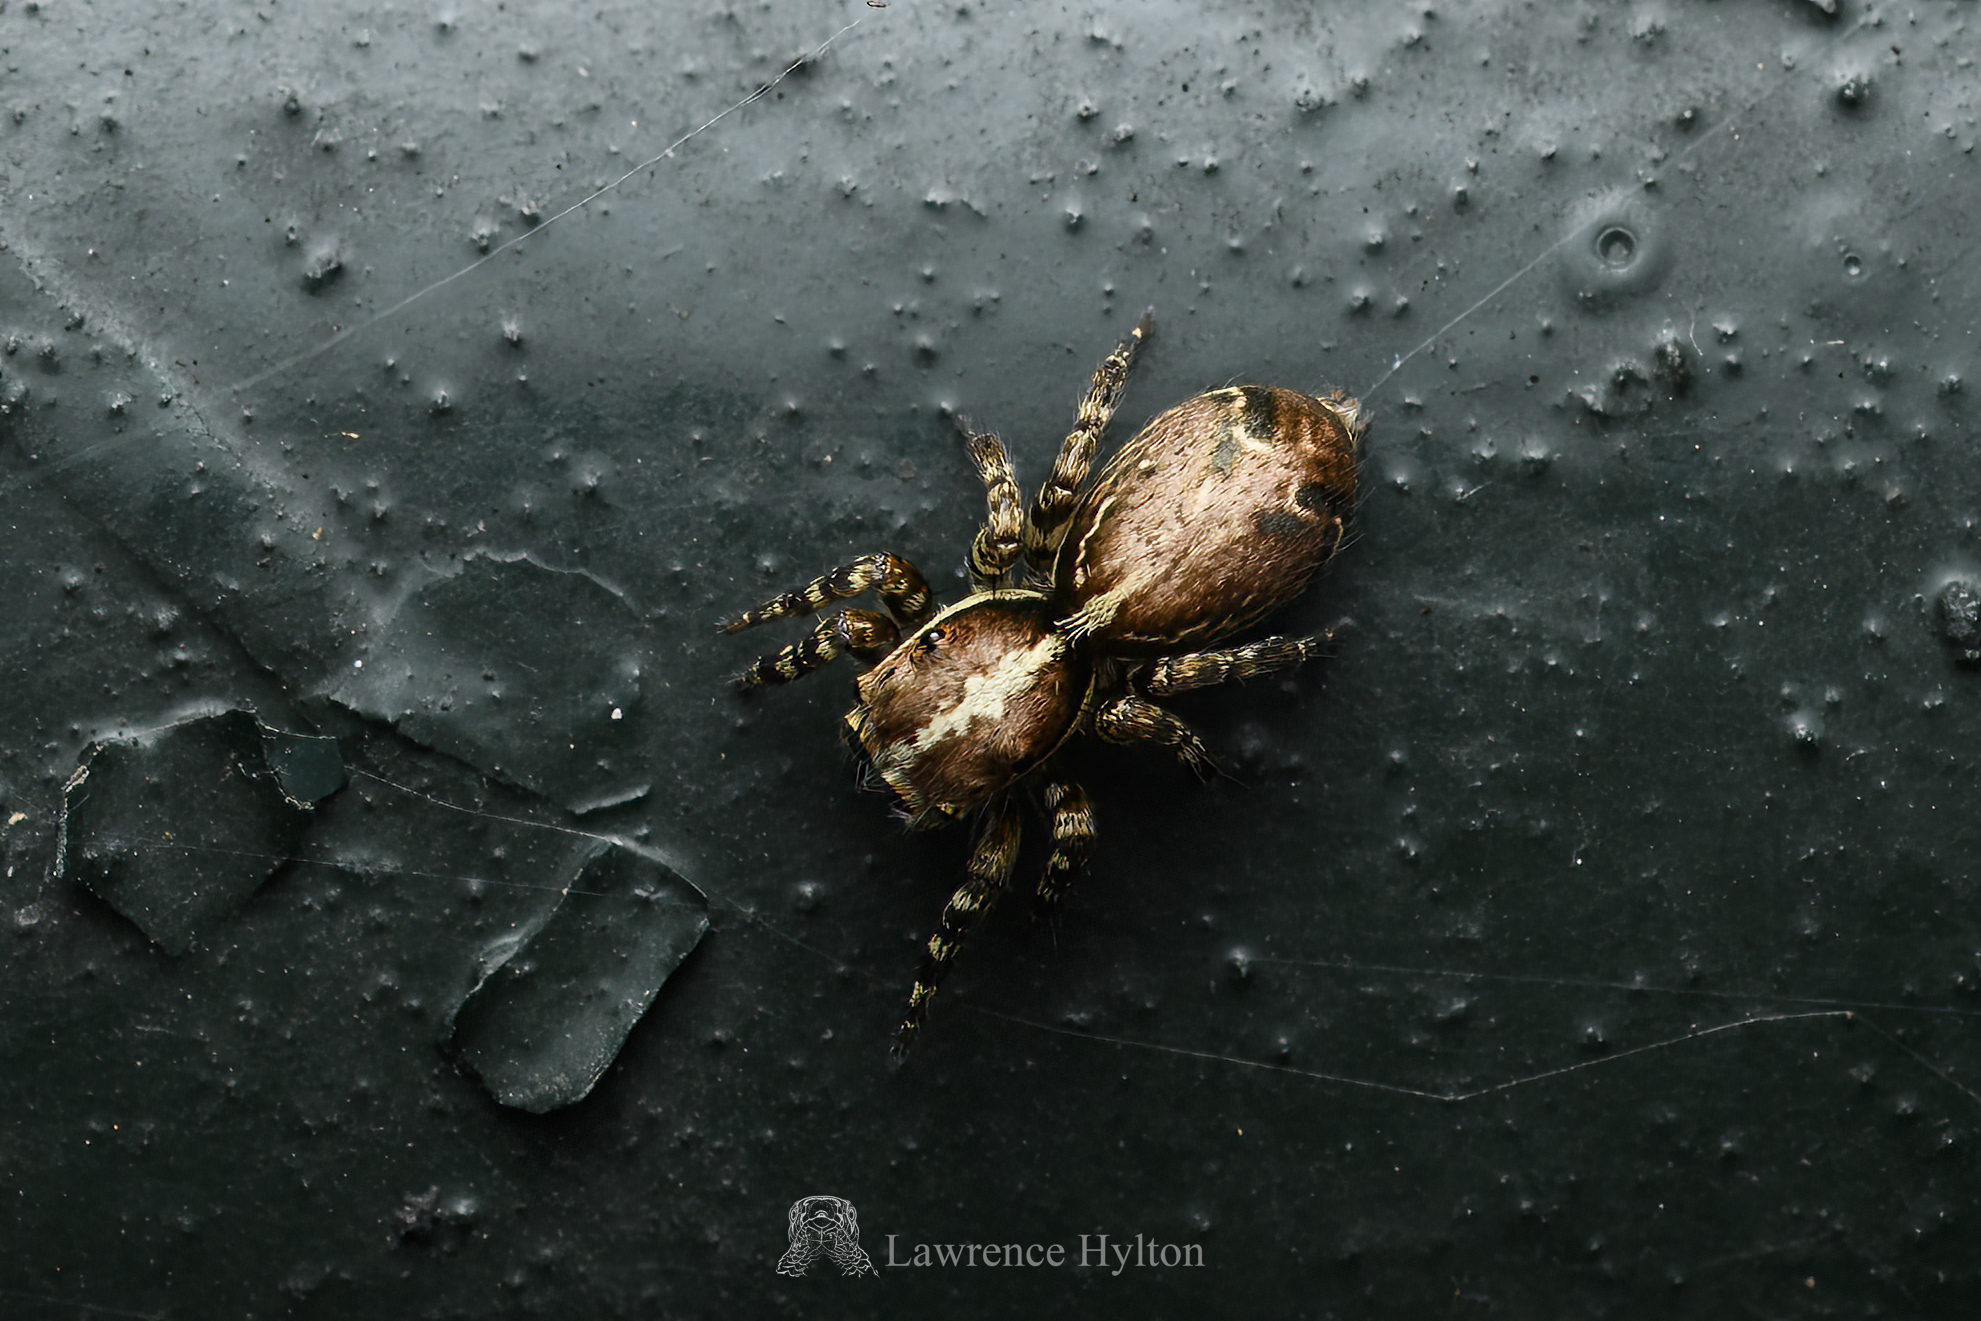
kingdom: Animalia
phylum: Arthropoda
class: Arachnida
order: Araneae
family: Salticidae
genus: Thyene
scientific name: Thyene orientalis
